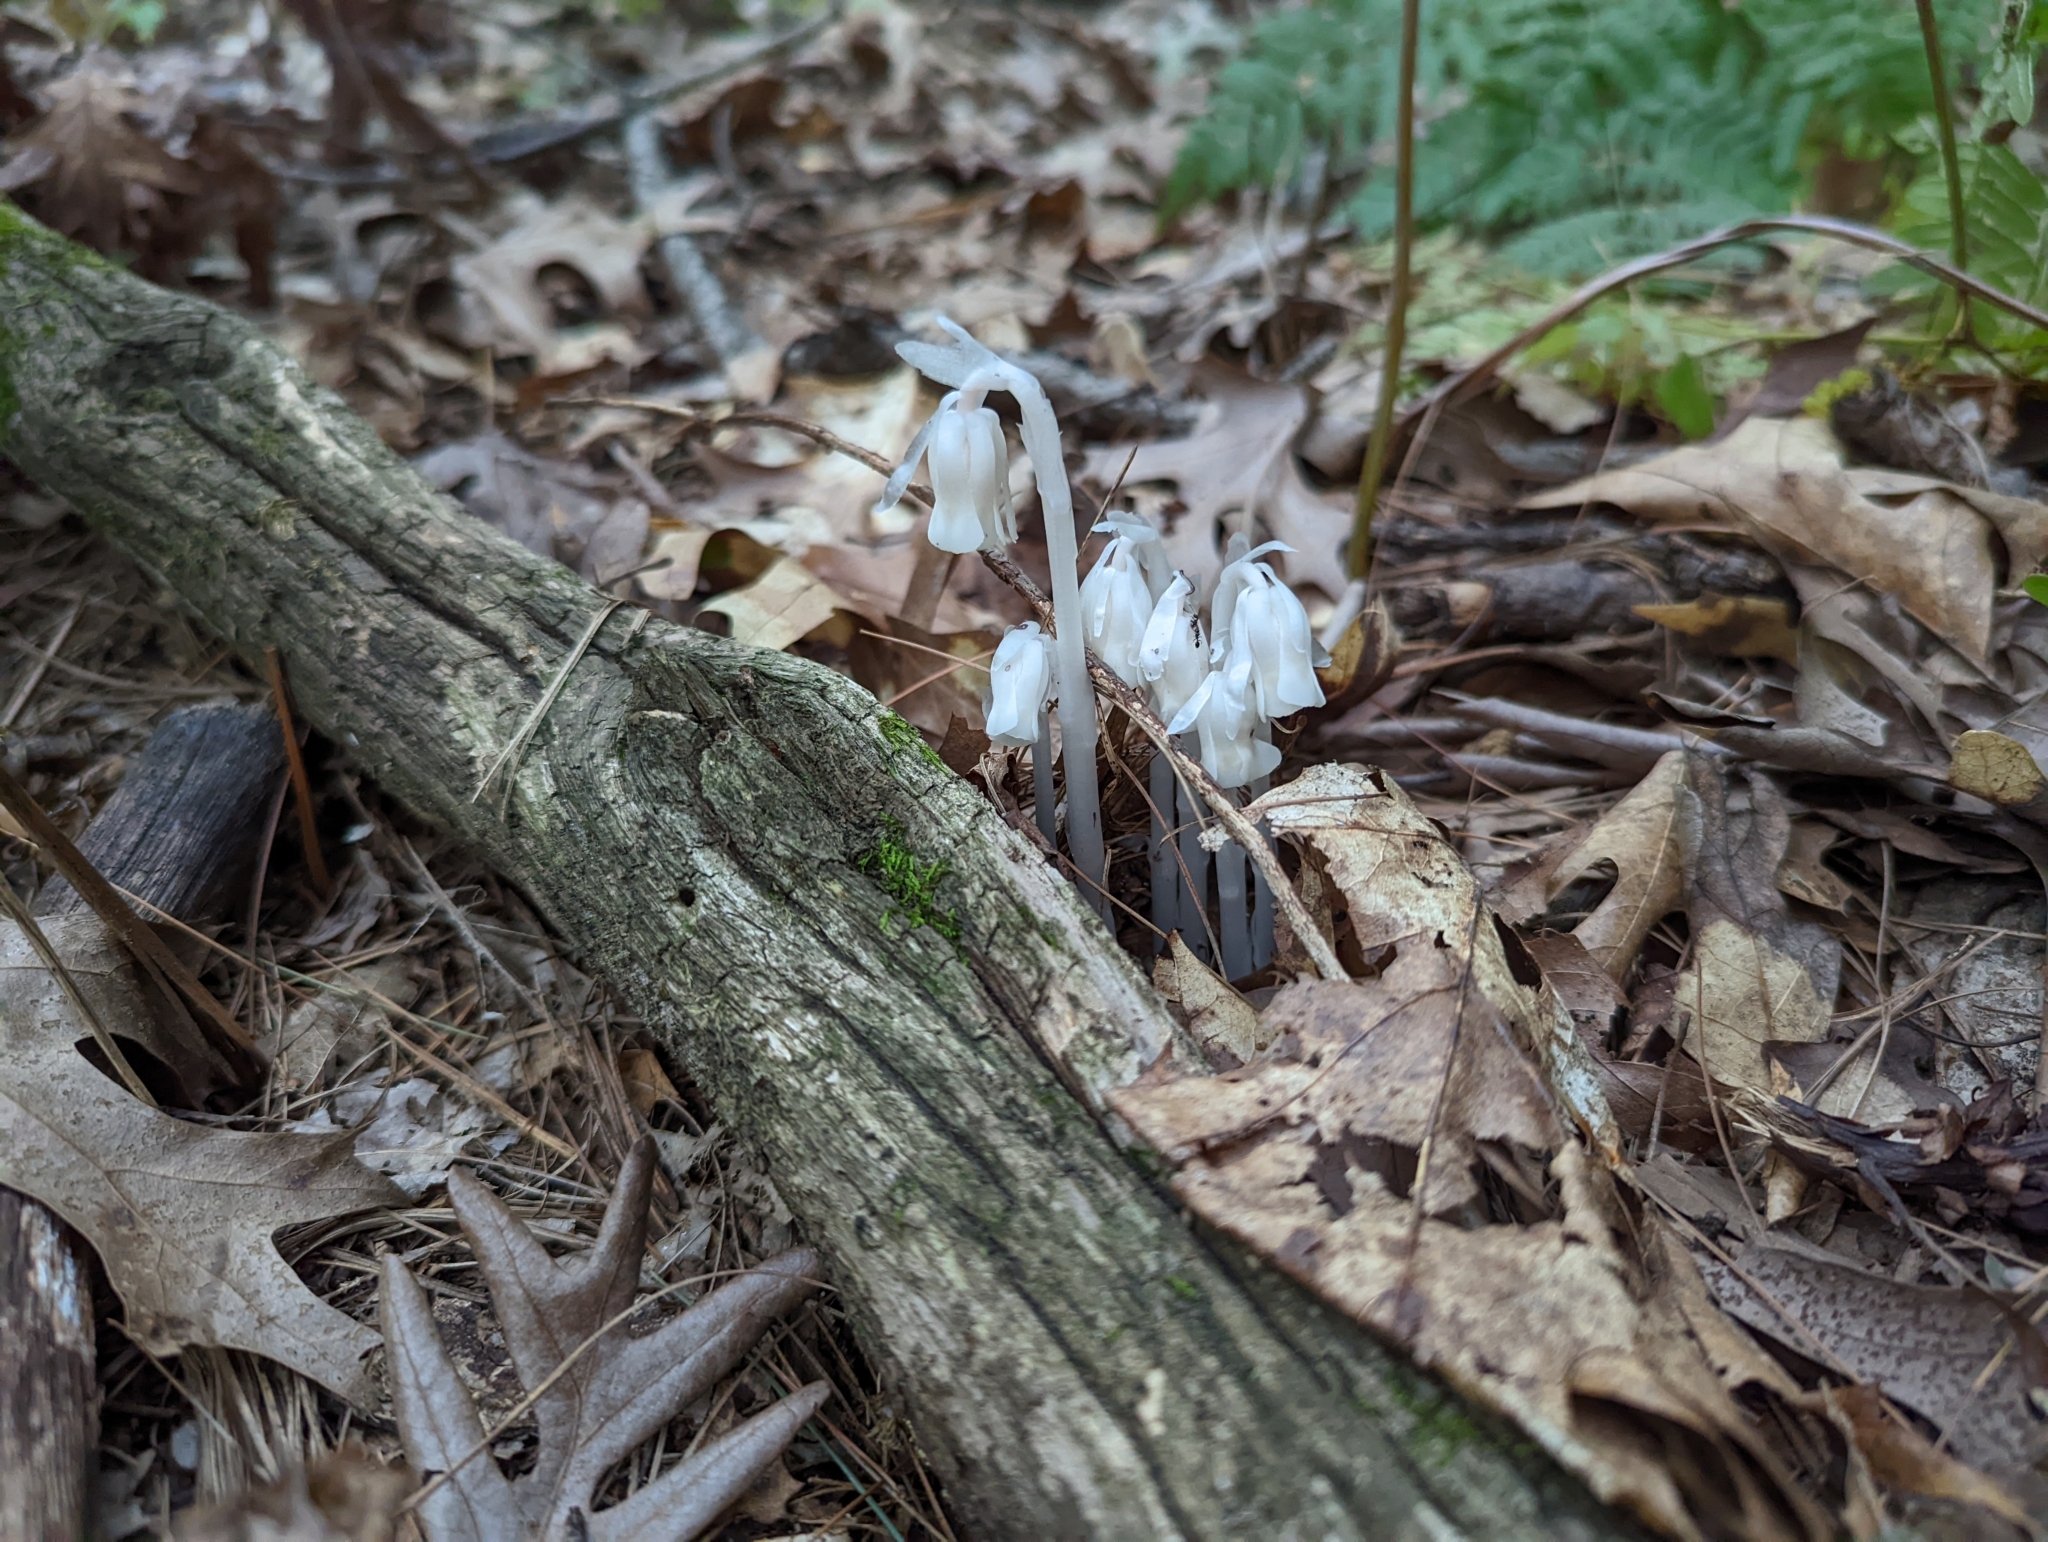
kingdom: Plantae
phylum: Tracheophyta
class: Magnoliopsida
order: Ericales
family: Ericaceae
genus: Monotropa
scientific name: Monotropa uniflora
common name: Convulsion root
